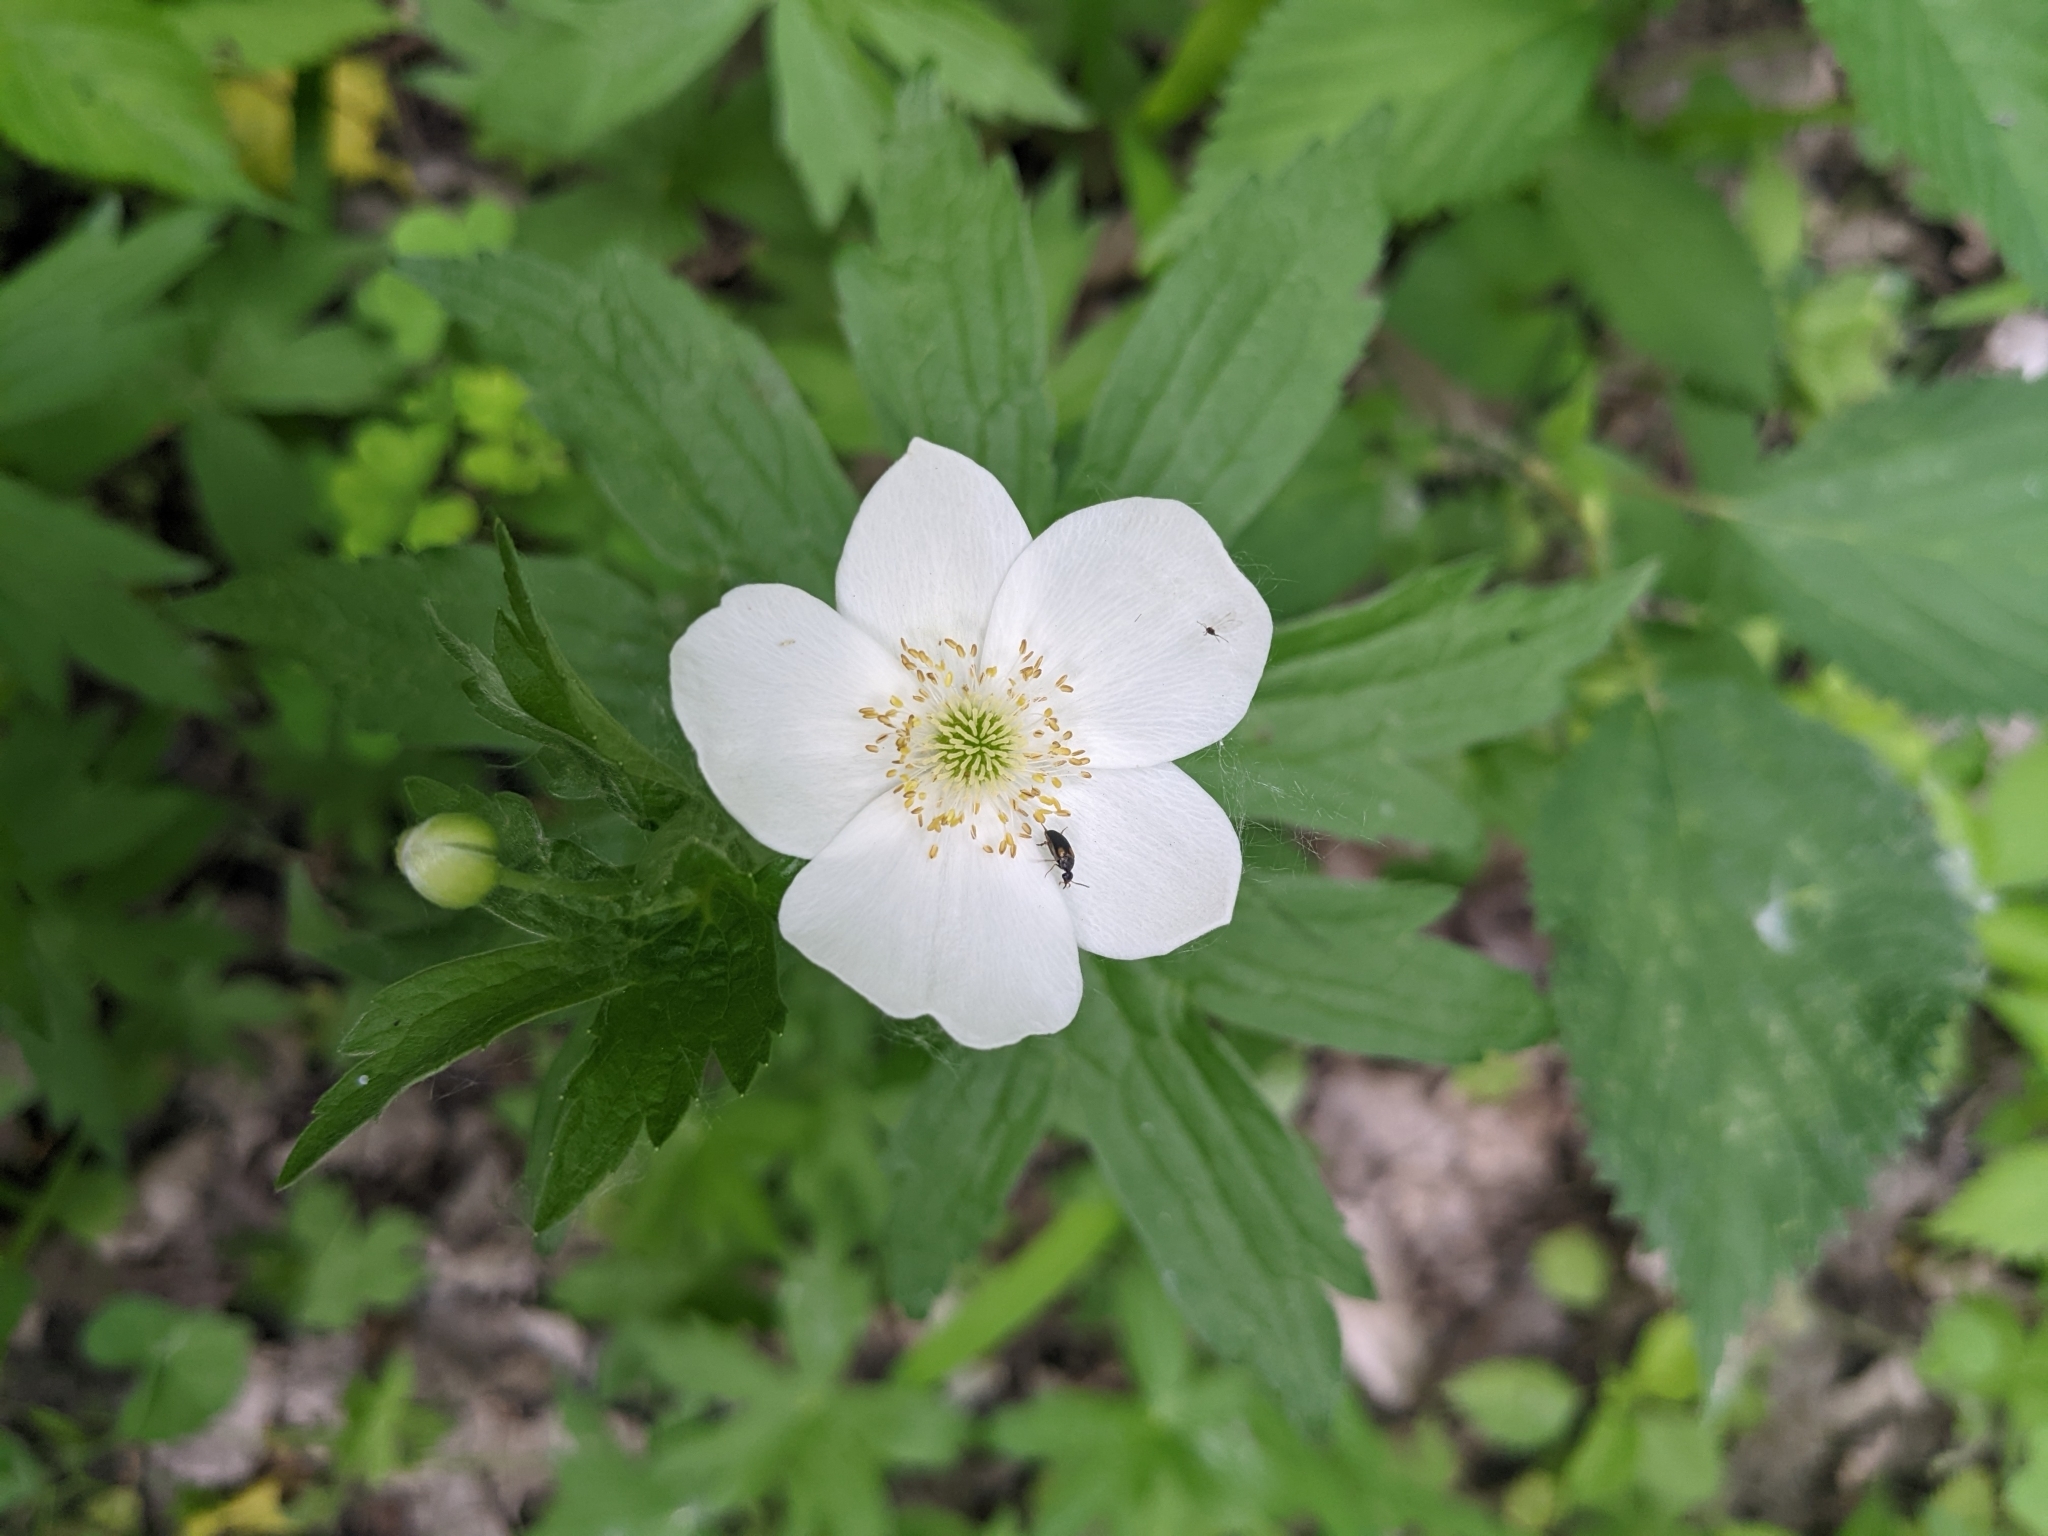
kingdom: Plantae
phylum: Tracheophyta
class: Magnoliopsida
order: Ranunculales
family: Ranunculaceae
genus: Anemonastrum
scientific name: Anemonastrum canadense
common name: Canada anemone
